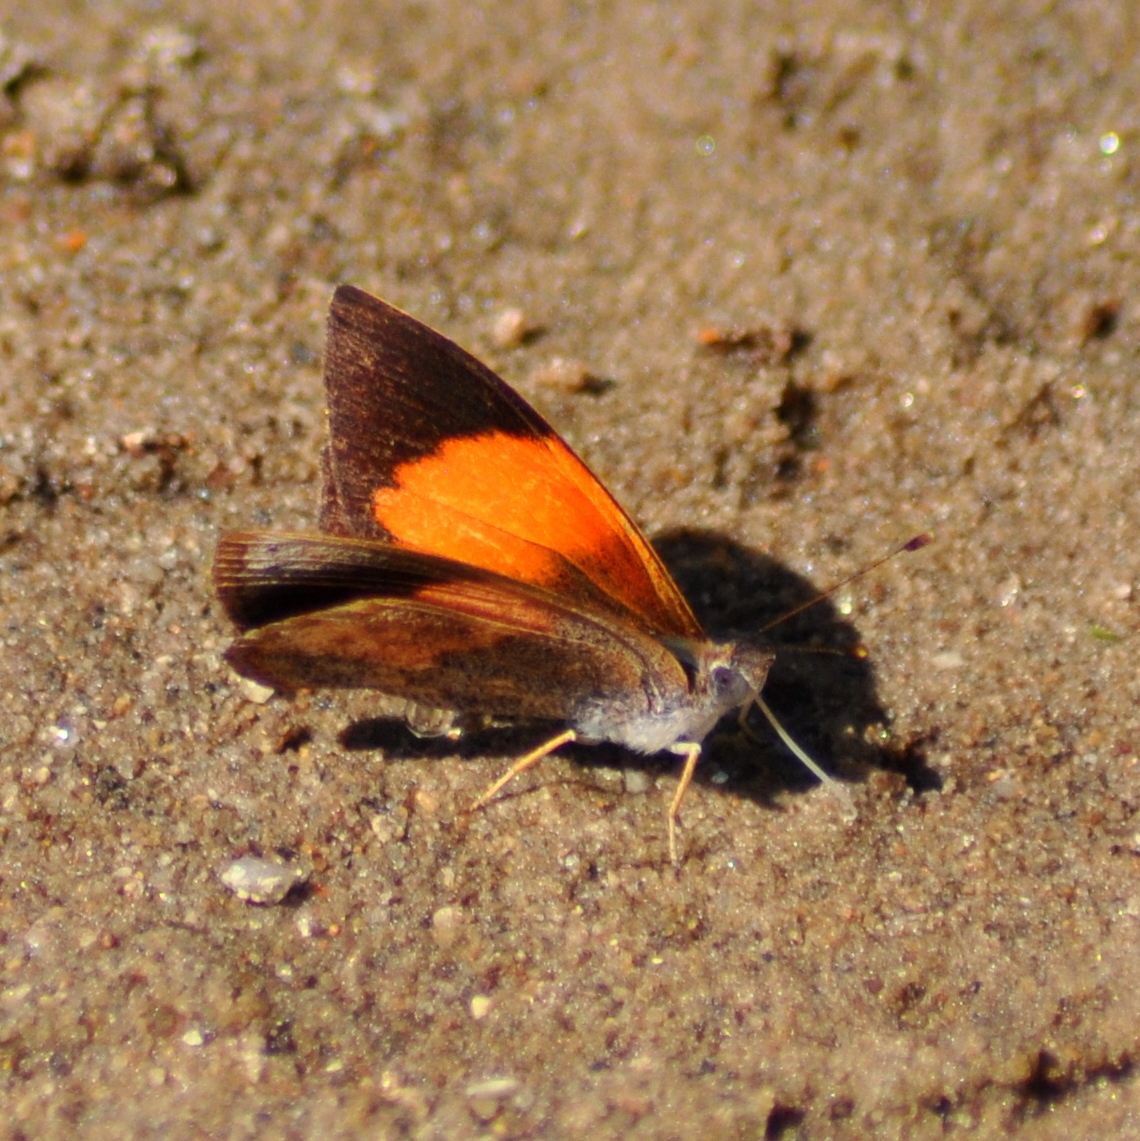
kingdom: Animalia
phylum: Arthropoda
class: Insecta
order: Lepidoptera
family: Nymphalidae
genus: Haematera
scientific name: Haematera pyrame
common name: Blind eighty-eight
